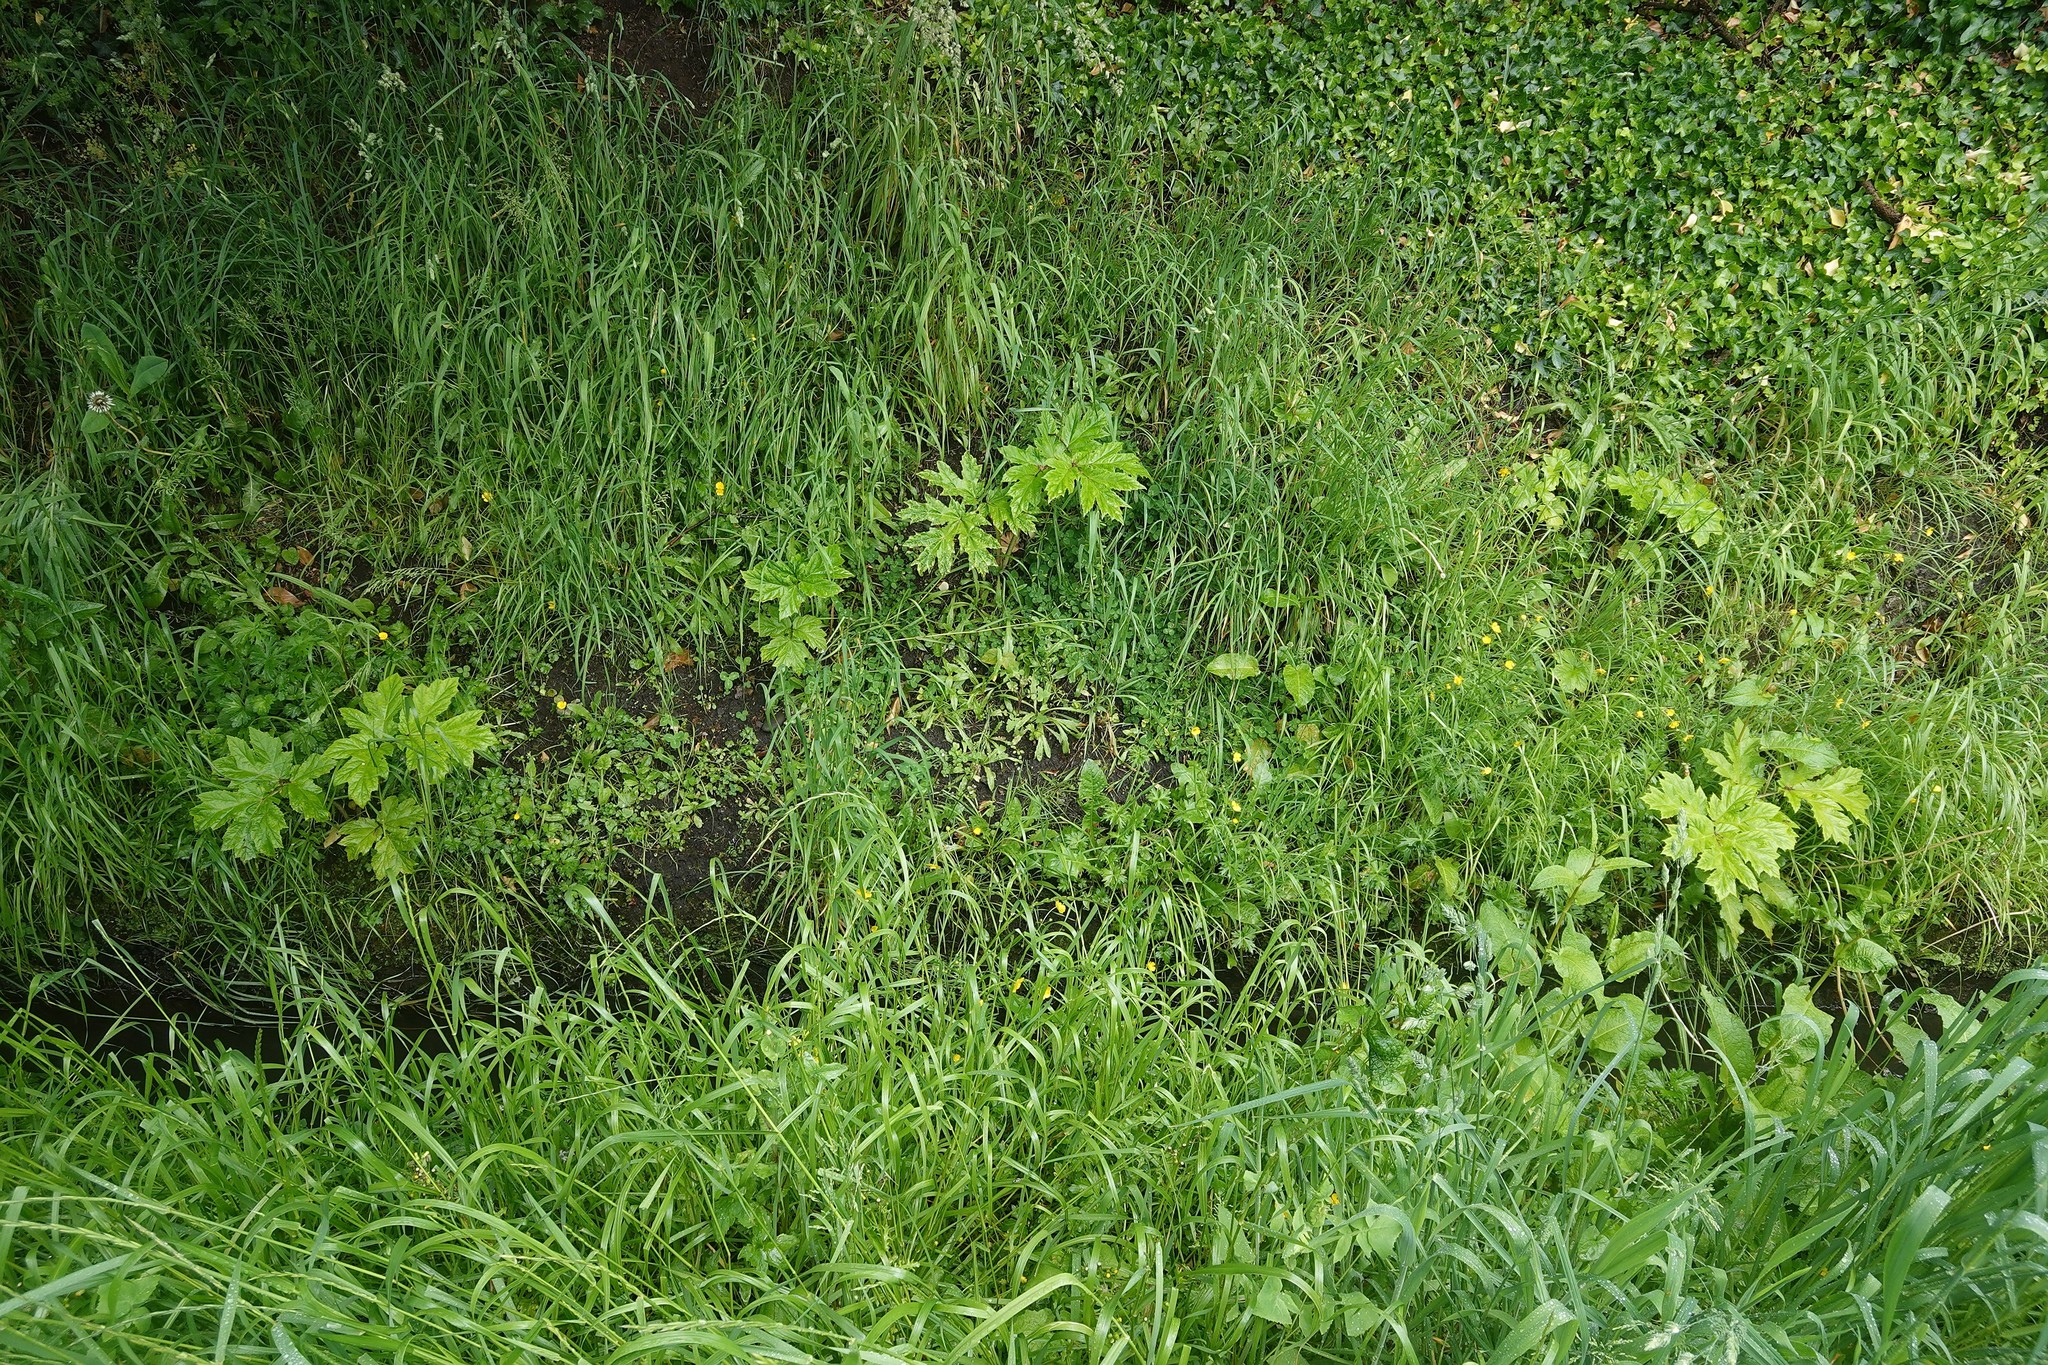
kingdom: Plantae
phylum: Tracheophyta
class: Magnoliopsida
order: Apiales
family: Apiaceae
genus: Heracleum
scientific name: Heracleum mantegazzianum
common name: Giant hogweed
